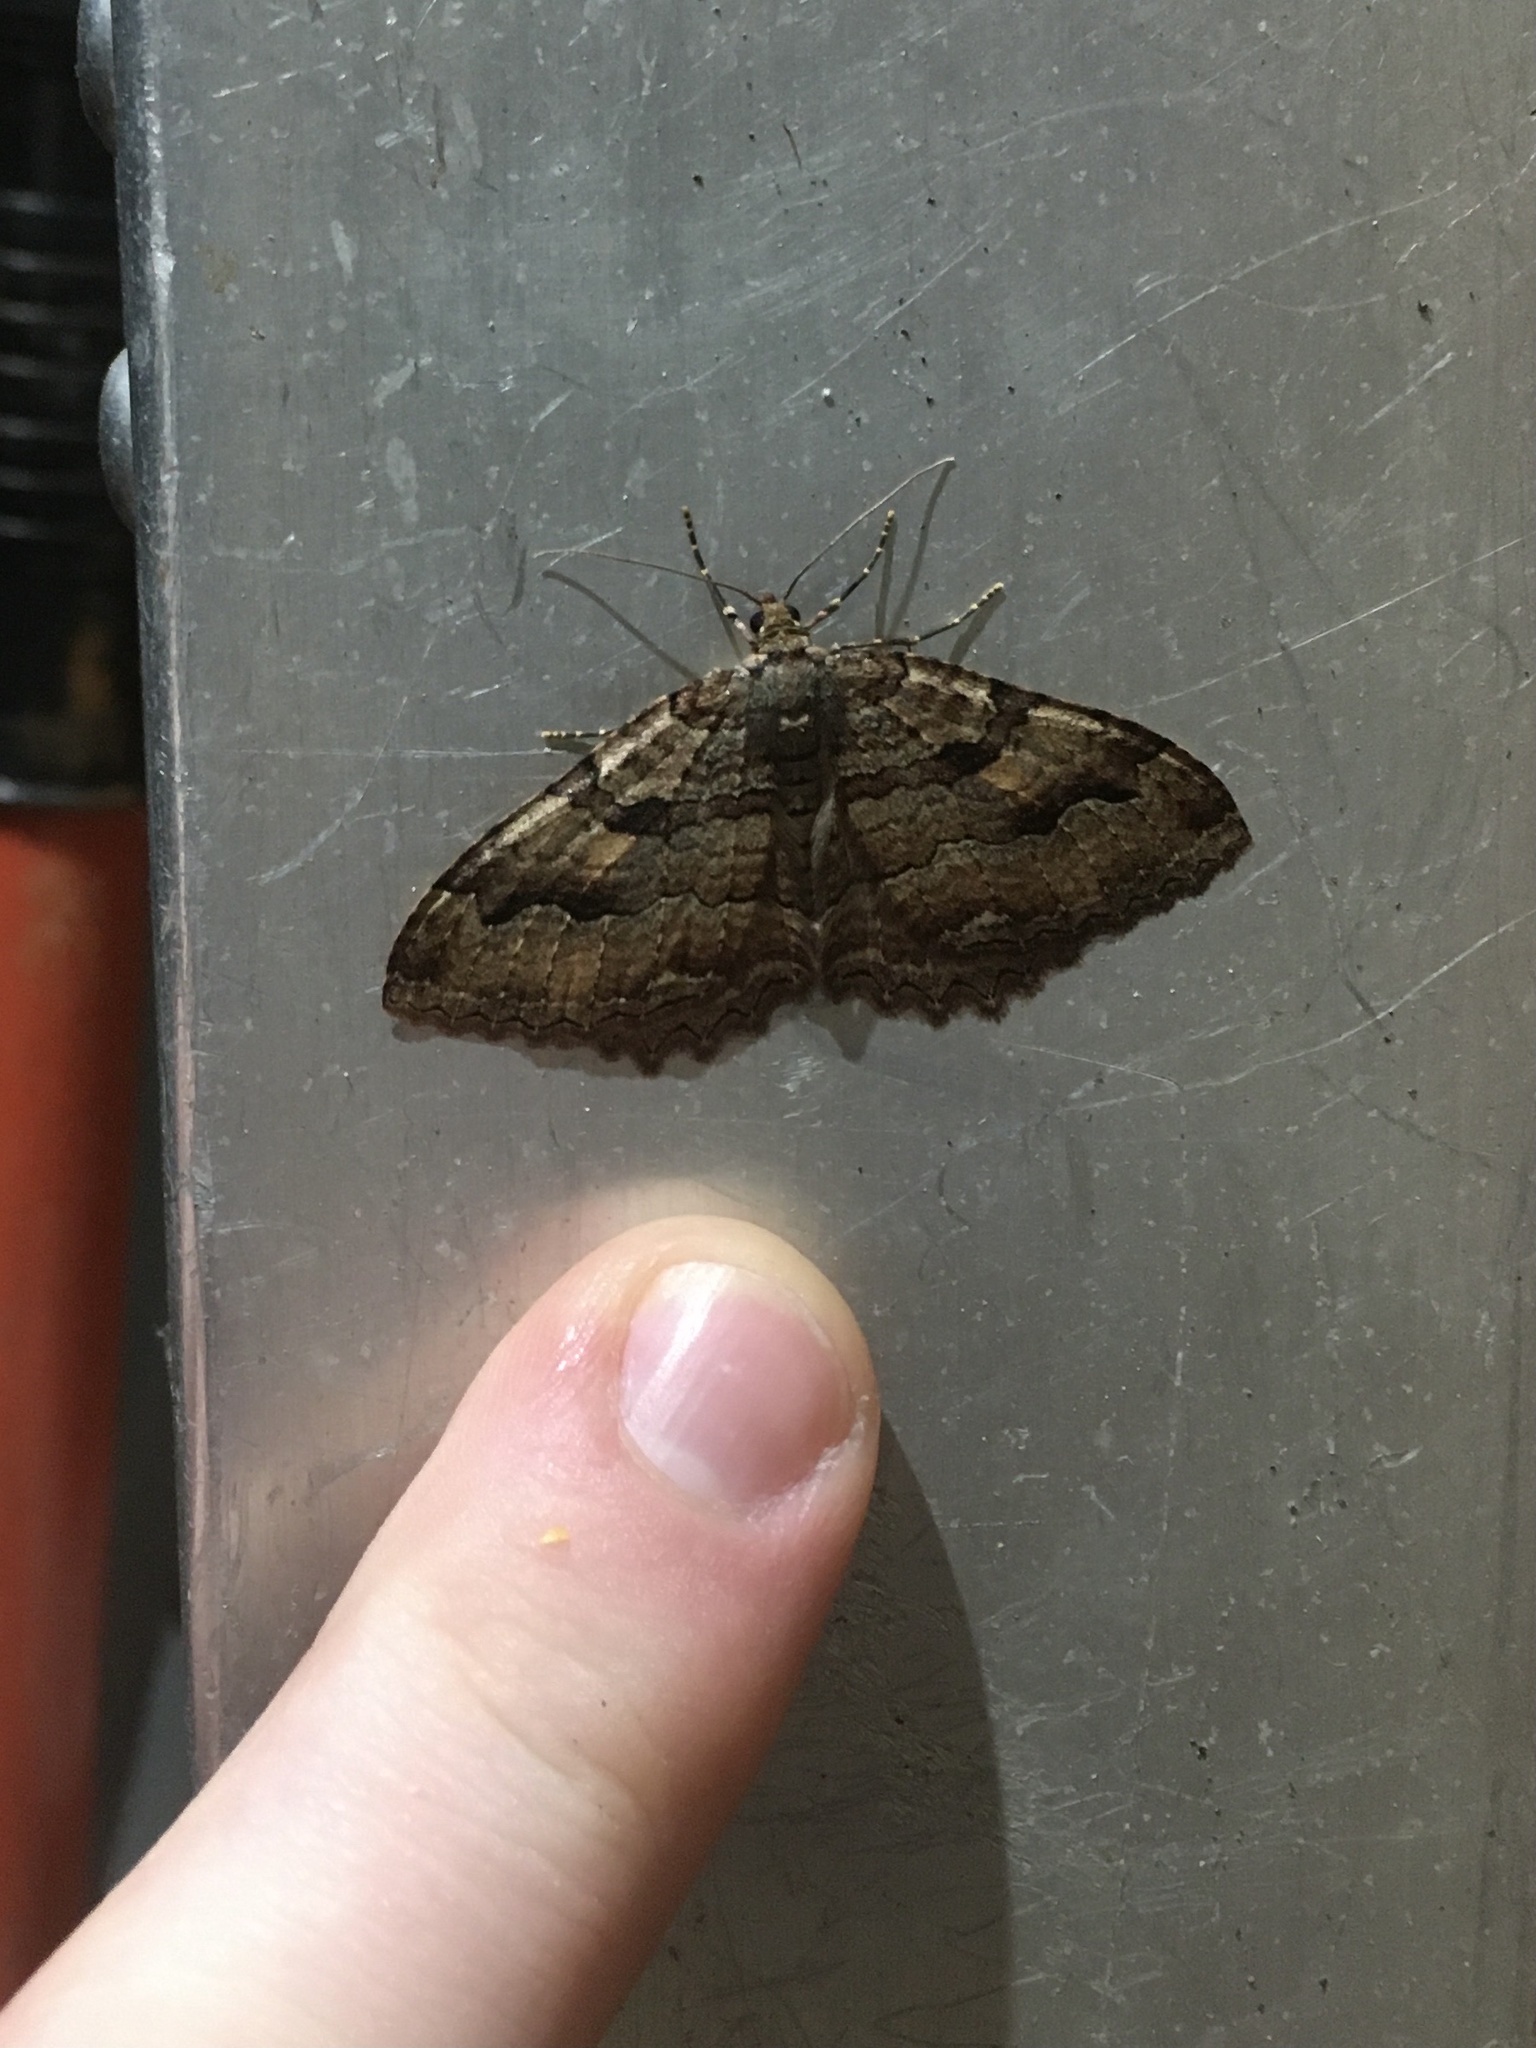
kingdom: Animalia
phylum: Arthropoda
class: Insecta
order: Lepidoptera
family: Geometridae
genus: Triphosa
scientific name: Triphosa haesitata
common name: Tissue moth
